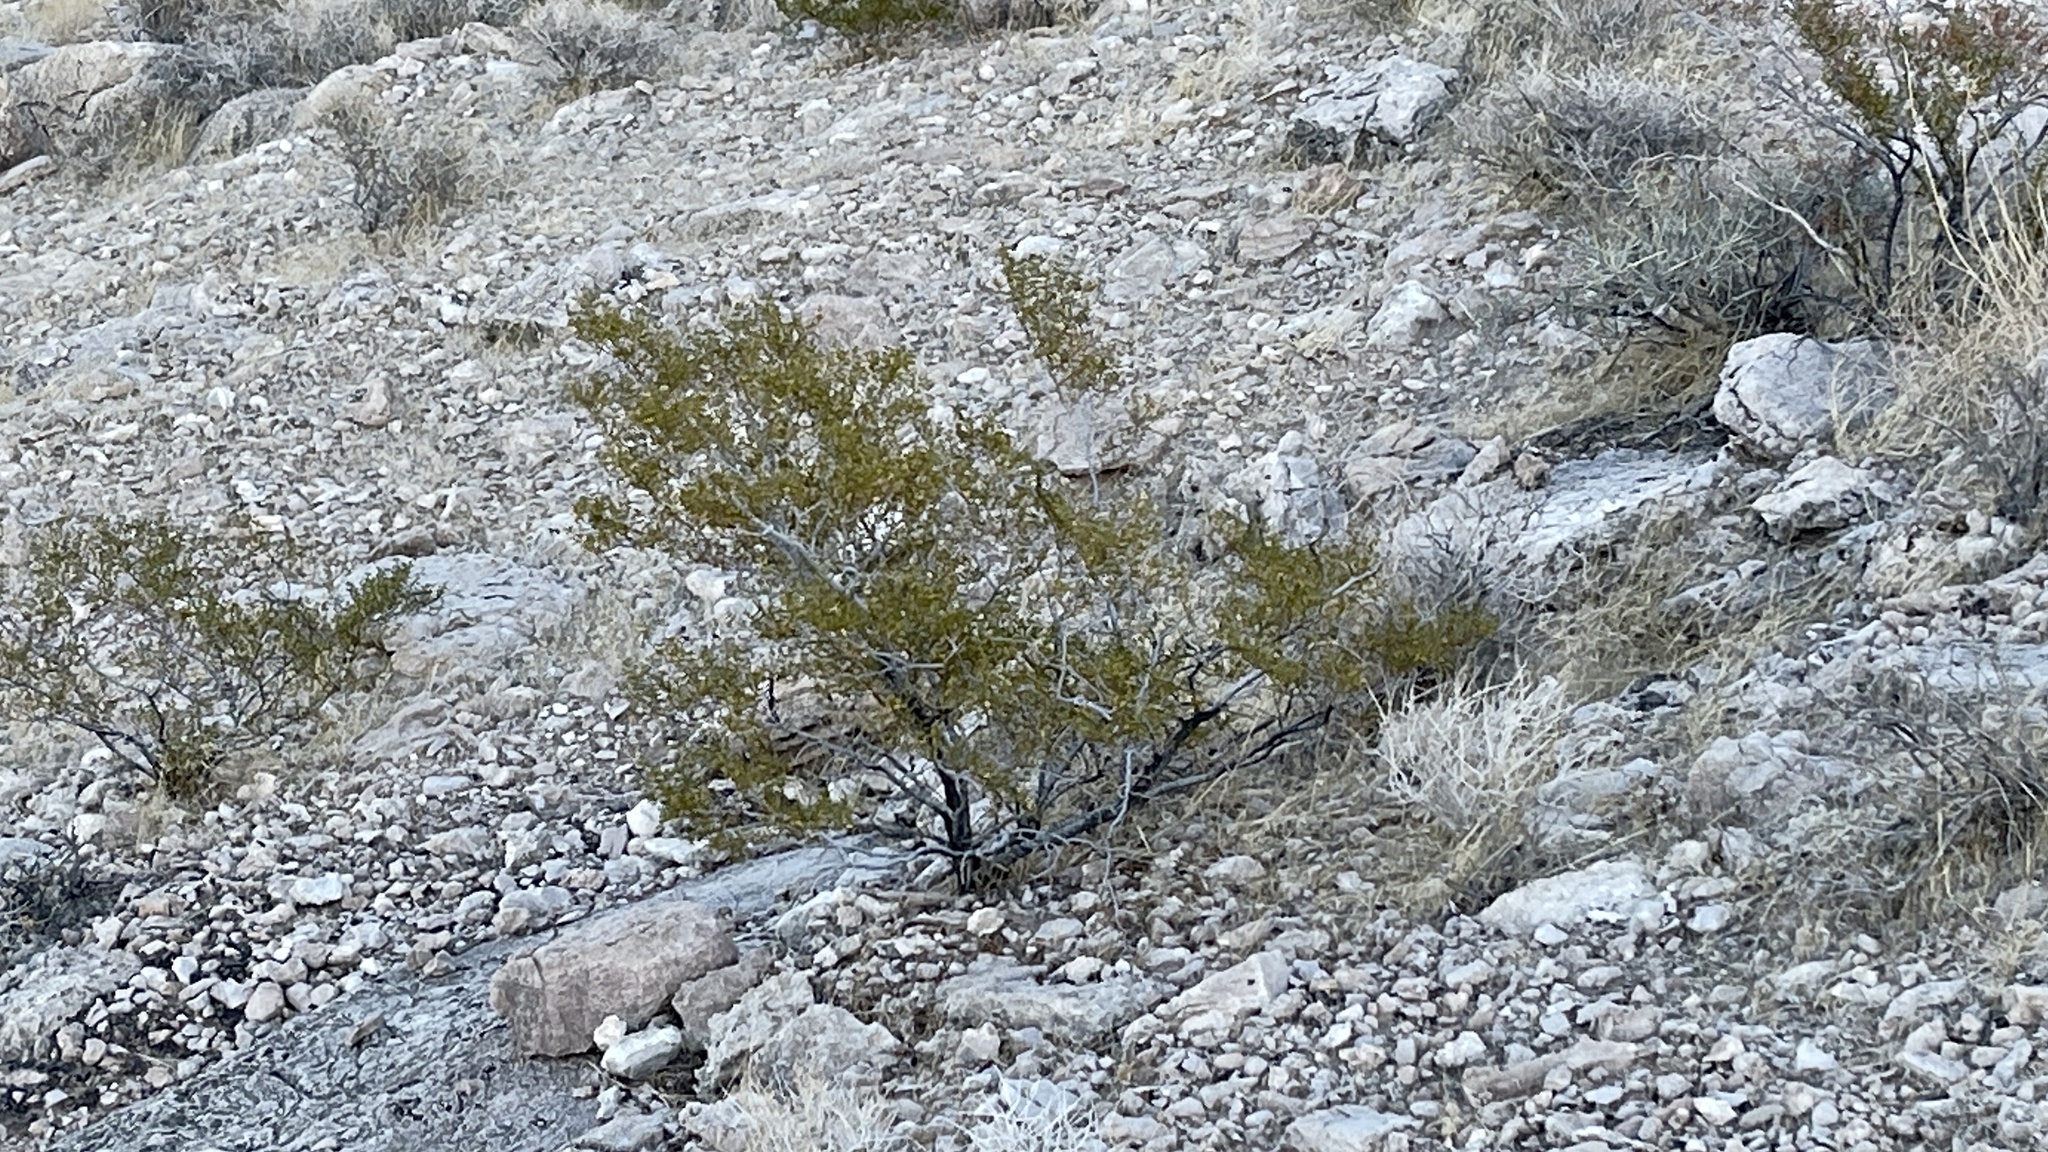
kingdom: Plantae
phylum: Tracheophyta
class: Magnoliopsida
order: Zygophyllales
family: Zygophyllaceae
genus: Larrea
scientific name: Larrea tridentata
